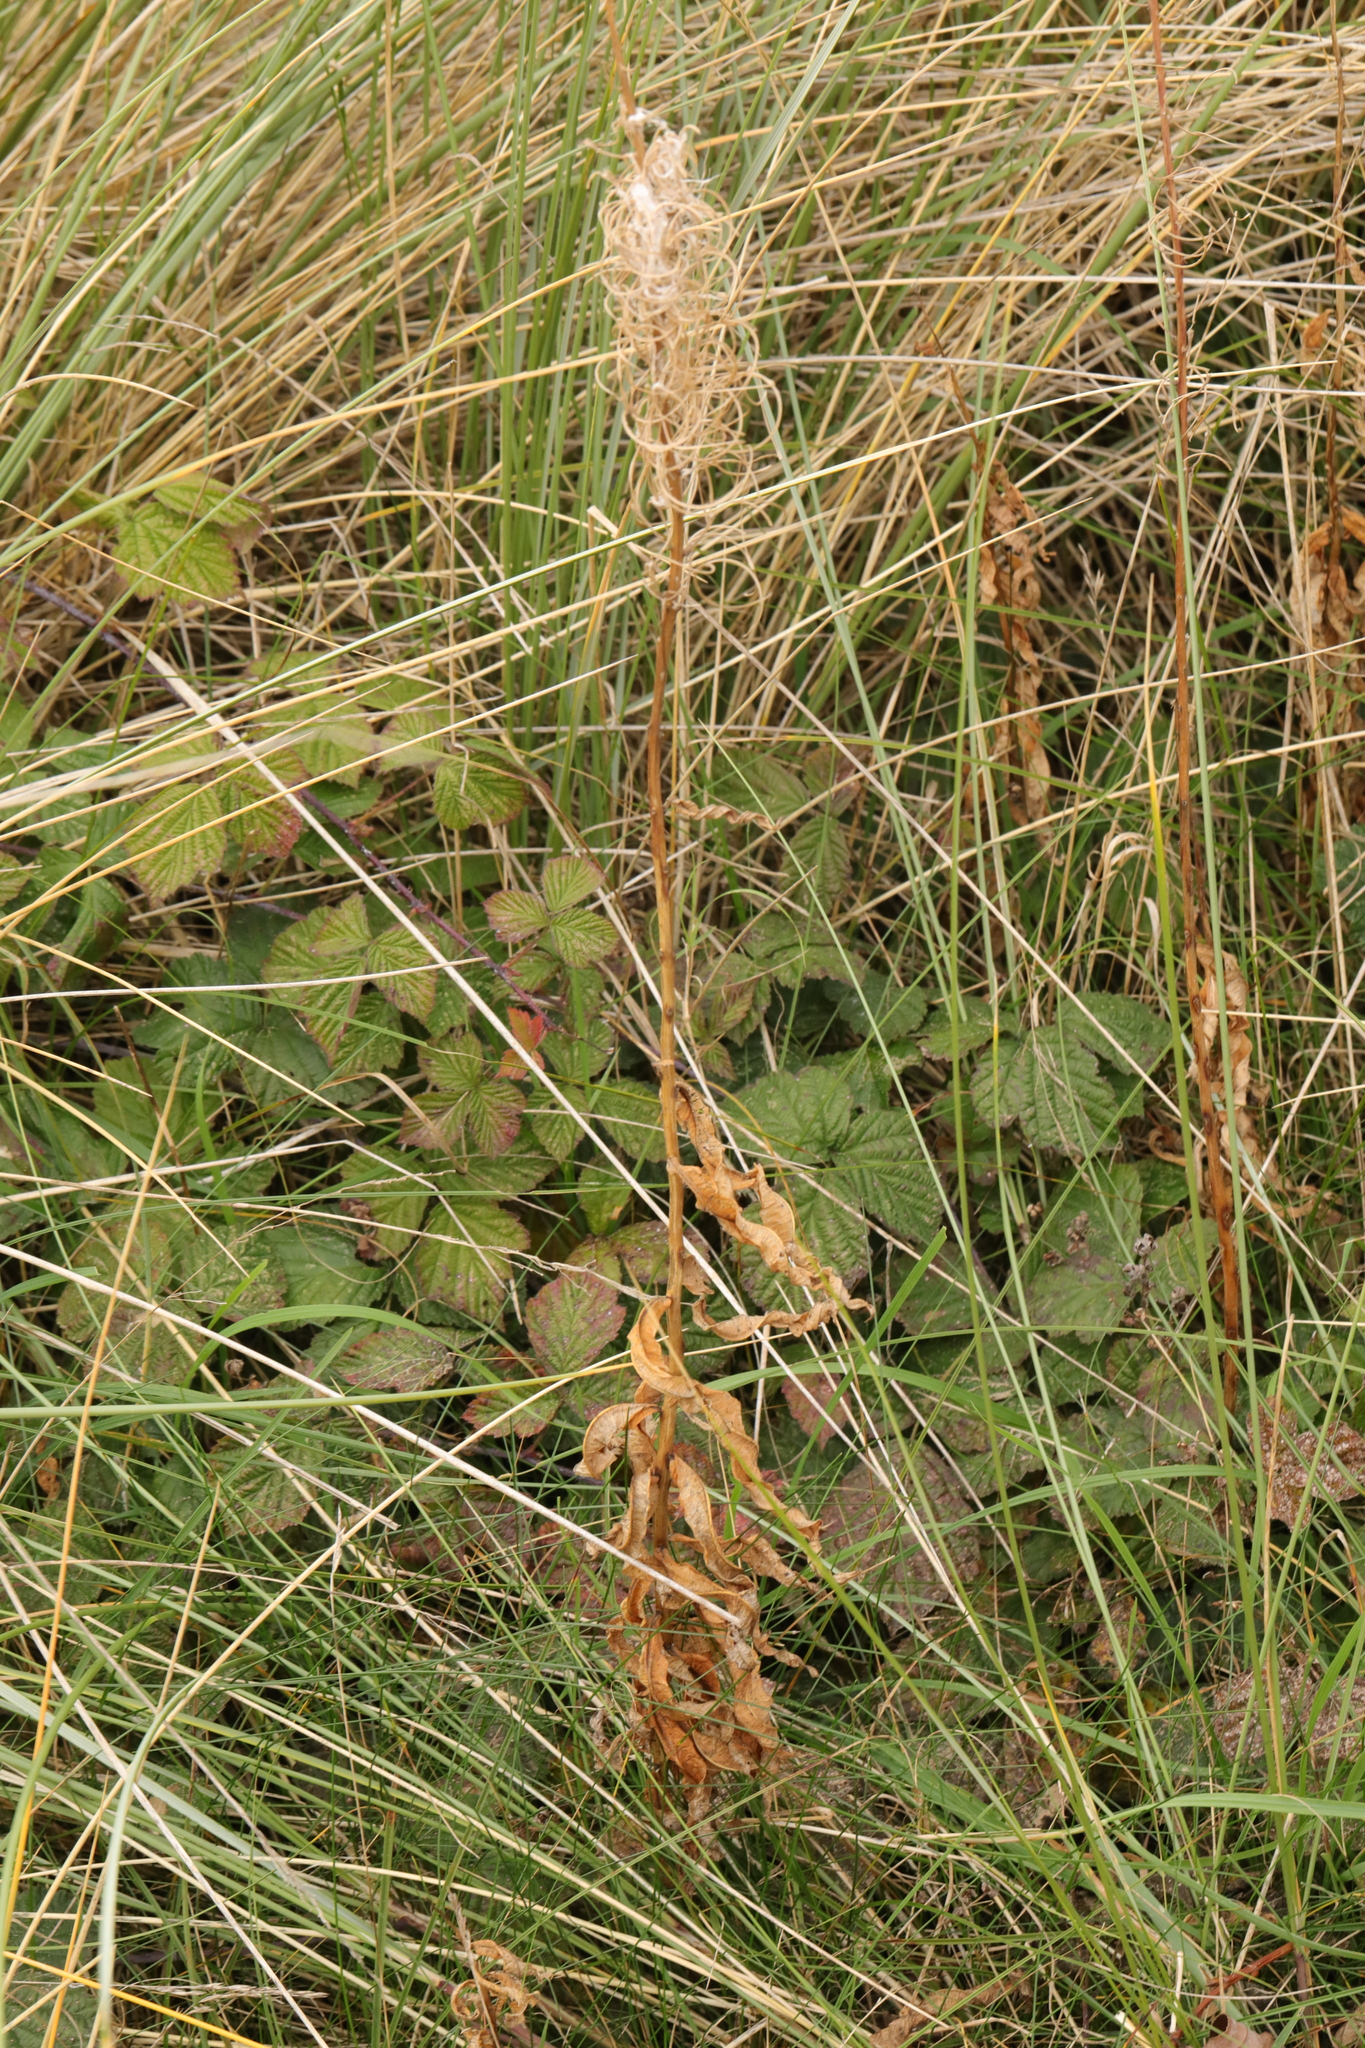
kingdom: Plantae
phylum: Tracheophyta
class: Magnoliopsida
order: Myrtales
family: Onagraceae
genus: Chamaenerion
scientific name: Chamaenerion angustifolium
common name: Fireweed
